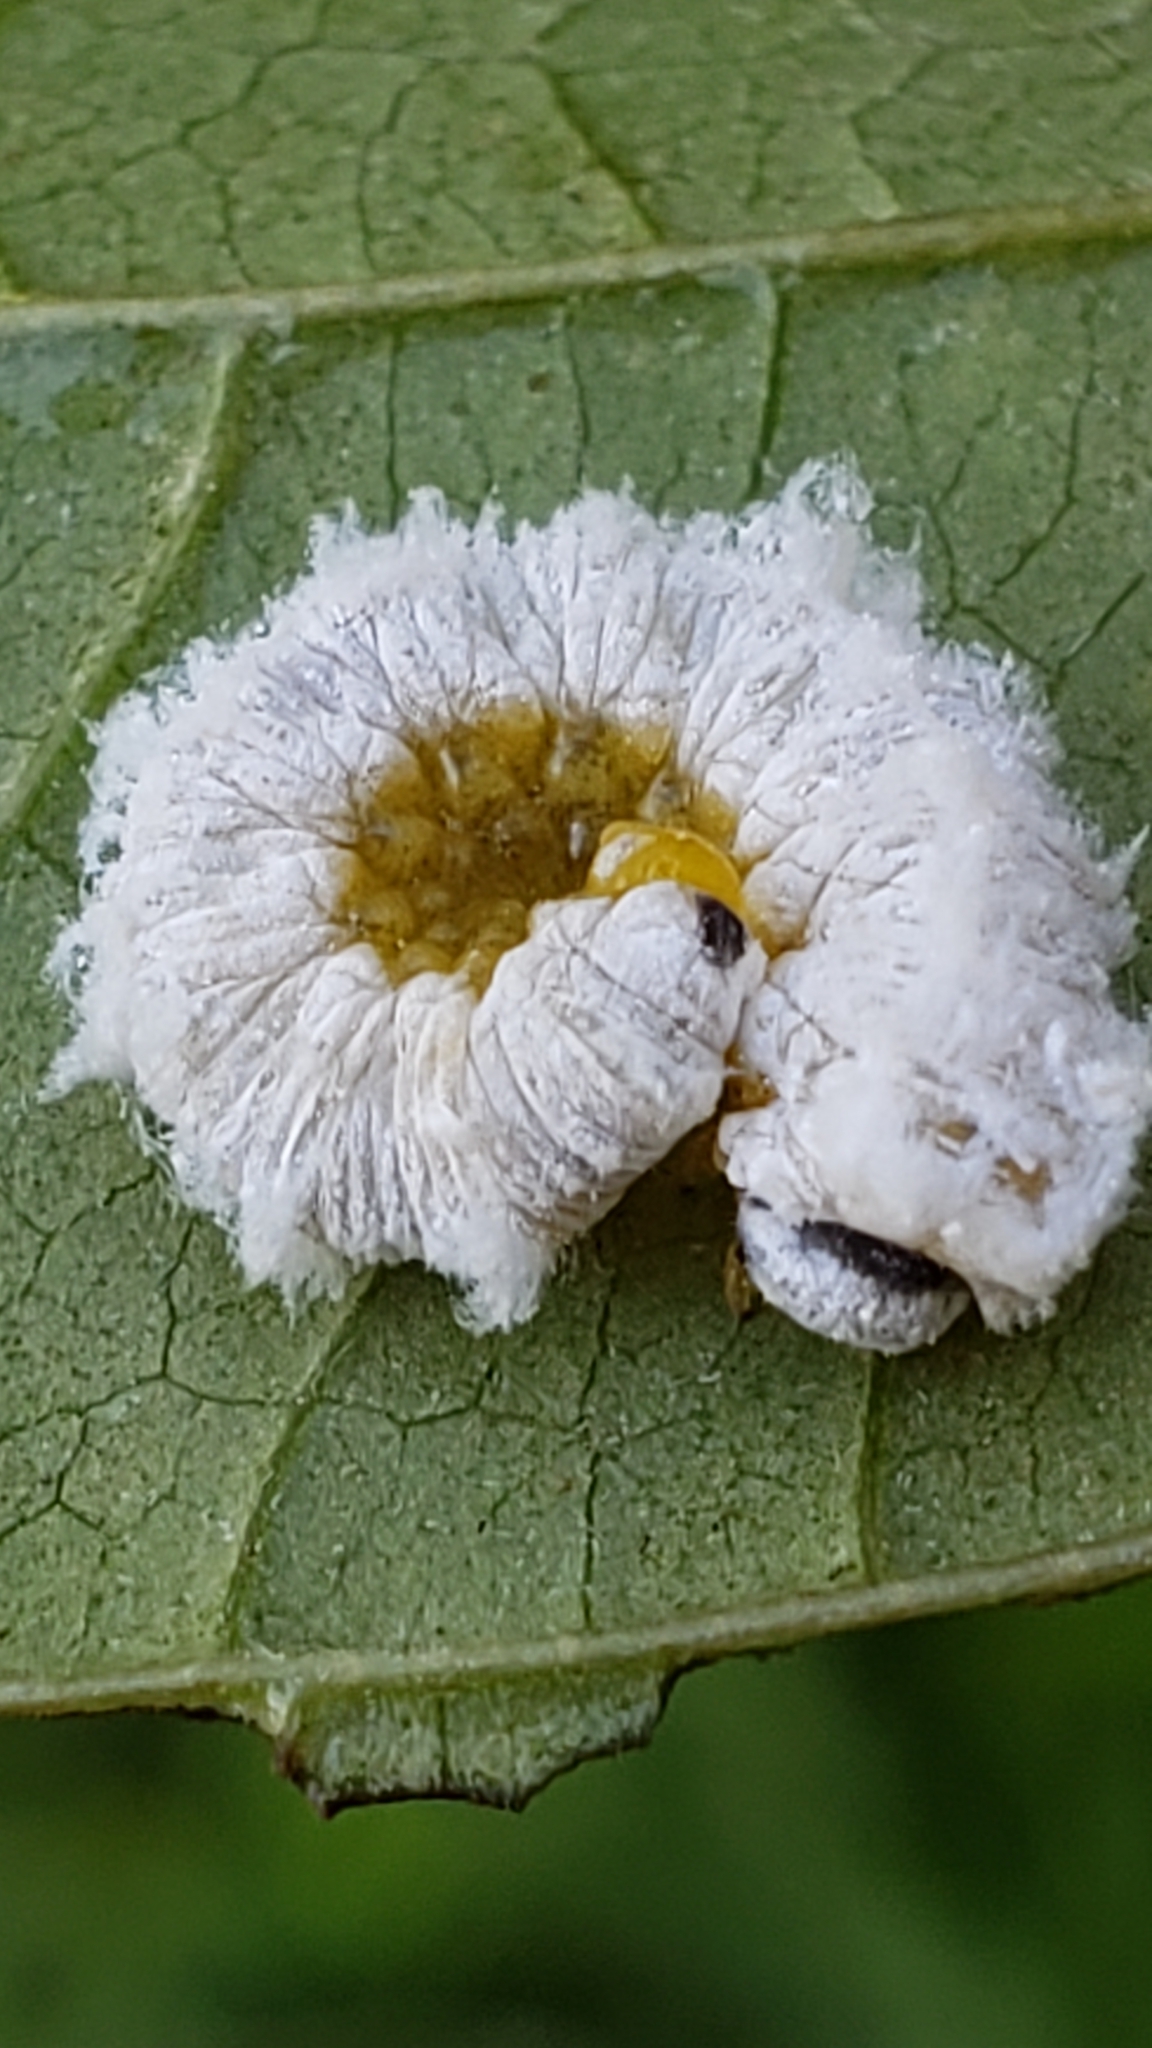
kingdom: Animalia
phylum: Arthropoda
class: Insecta
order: Hymenoptera
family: Tenthredinidae
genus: Macremphytus
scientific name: Macremphytus testaceus
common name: Dogwood sawfly
